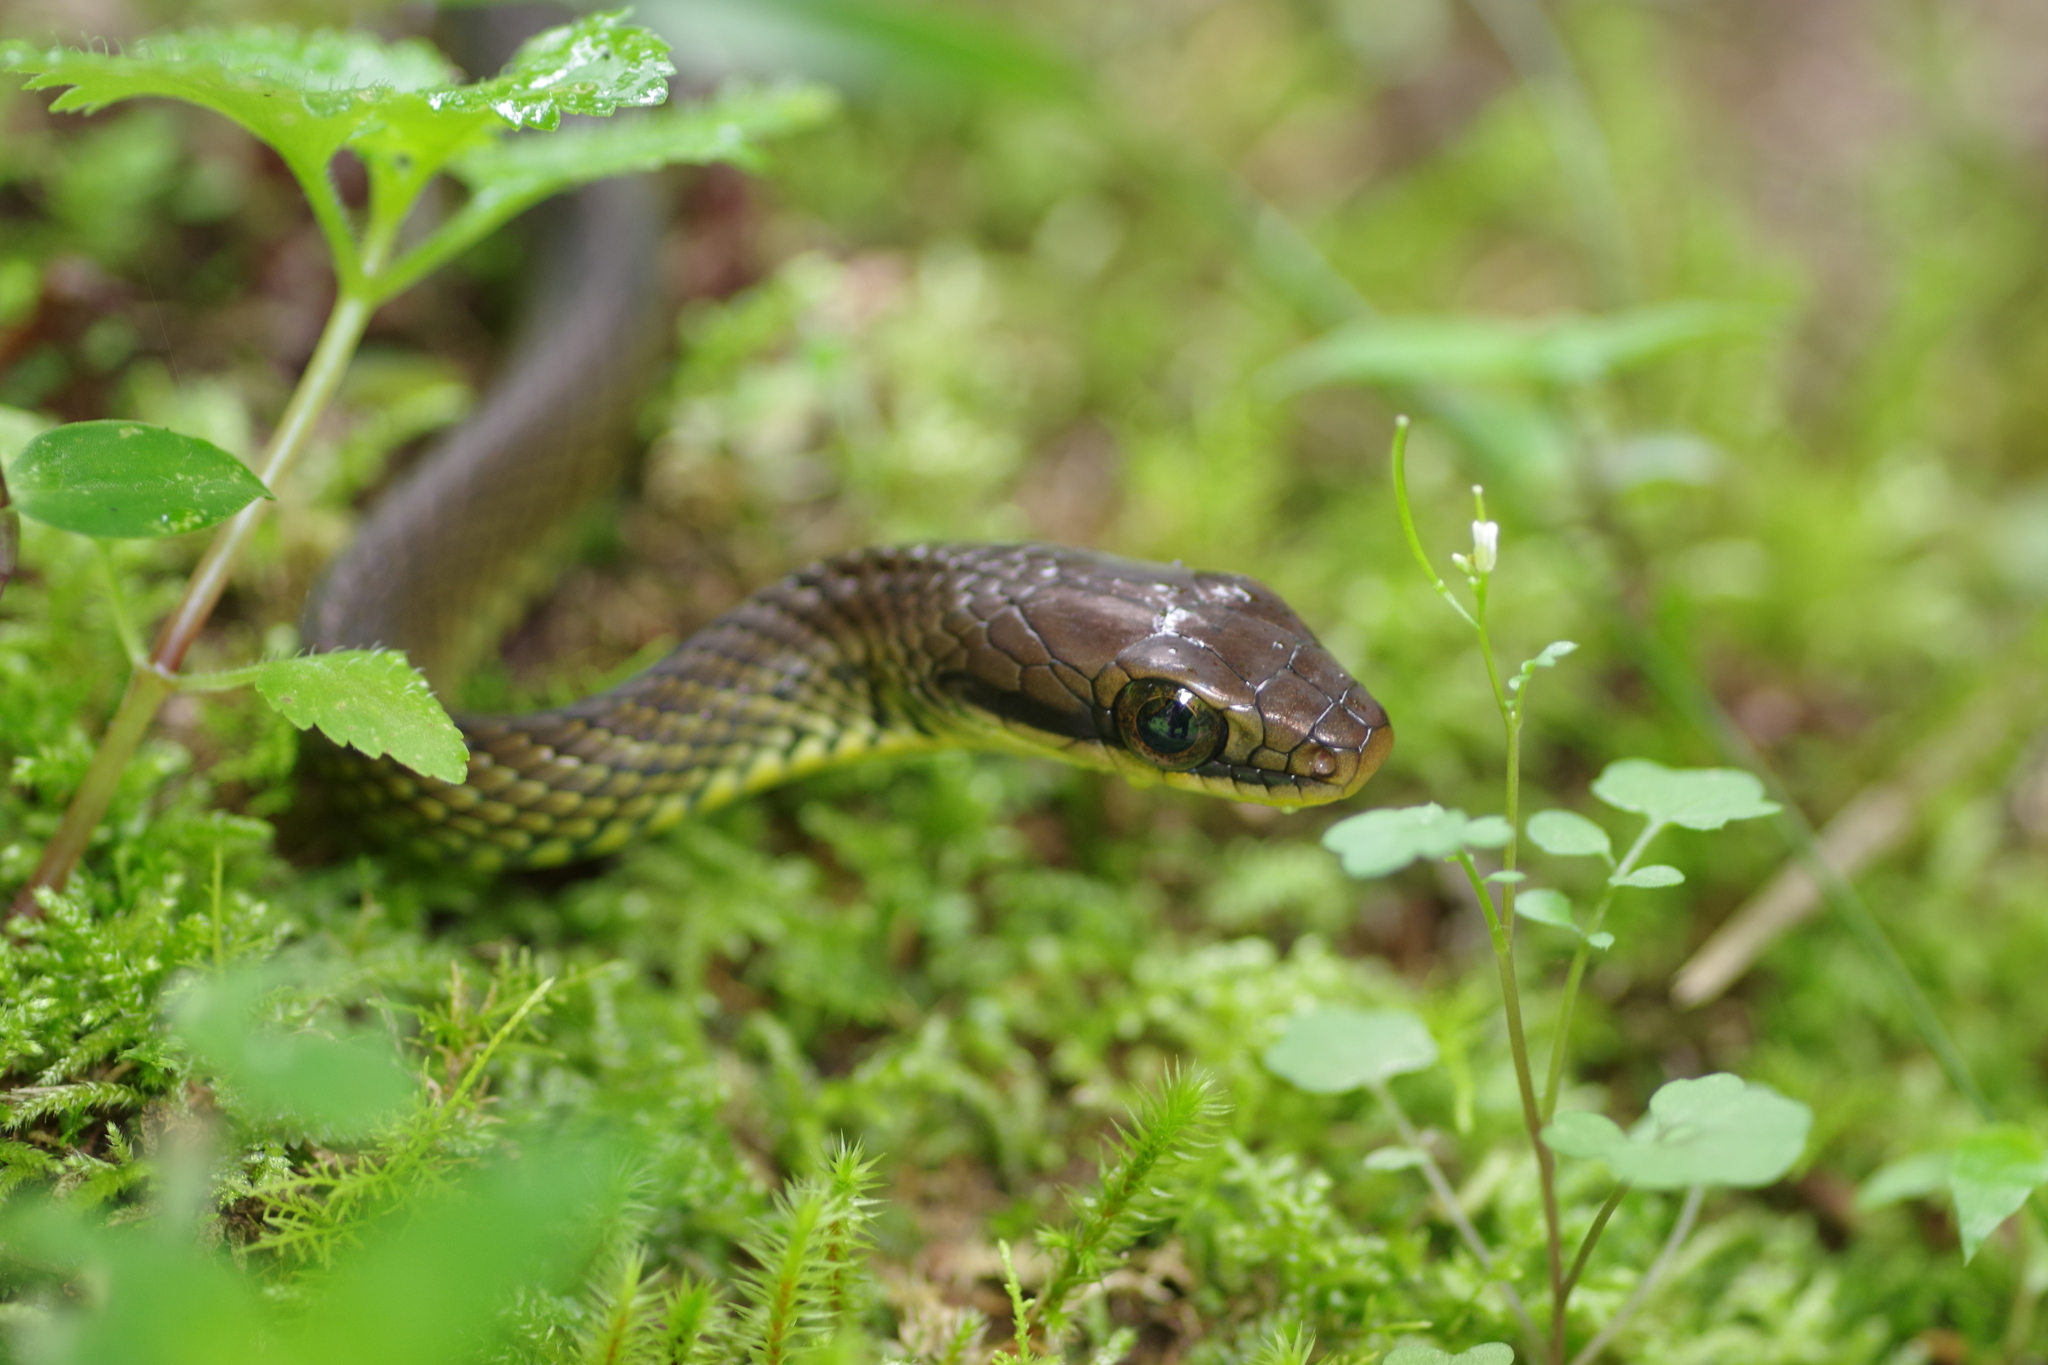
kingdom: Animalia
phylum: Chordata
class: Squamata
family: Colubridae
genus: Mastigodryas
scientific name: Mastigodryas melanolomus
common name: Salmon-bellied racer
